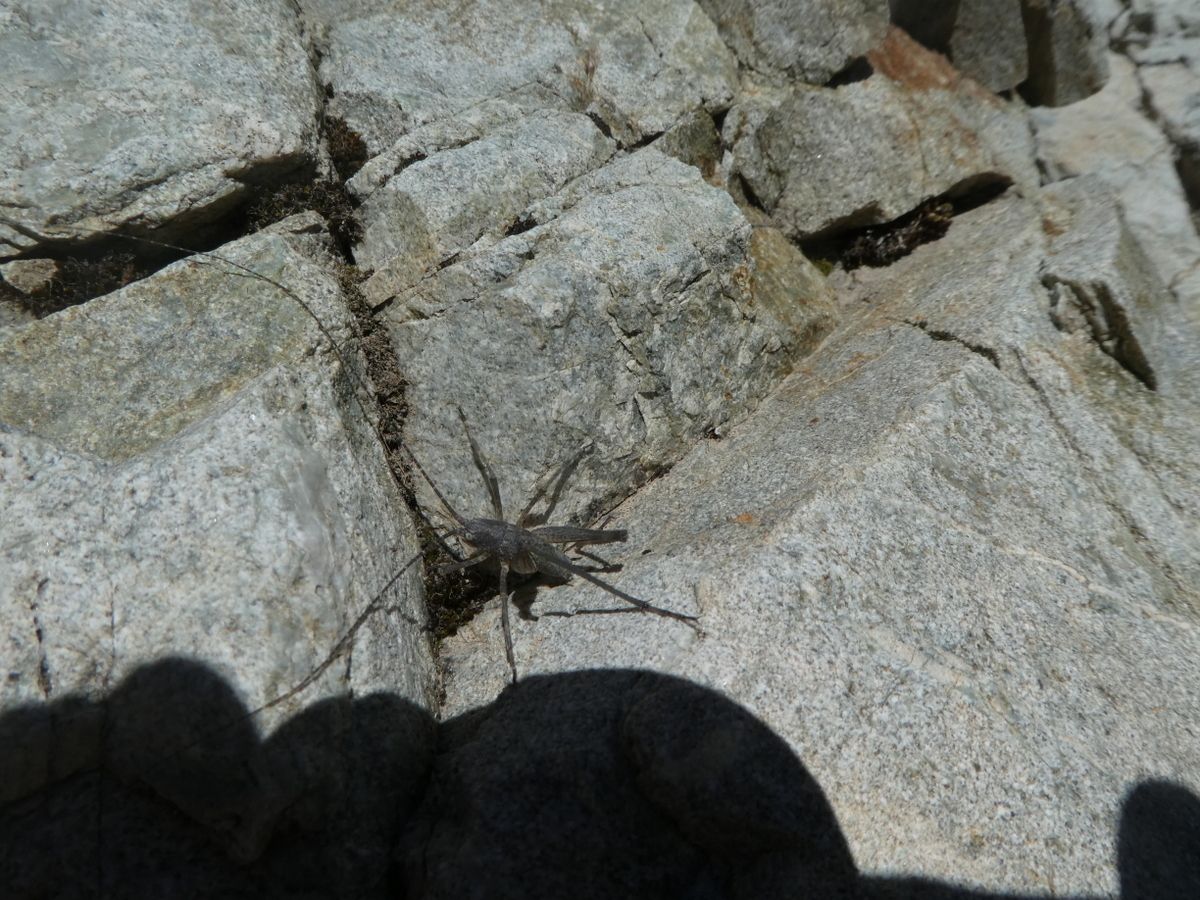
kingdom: Animalia
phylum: Arthropoda
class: Insecta
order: Orthoptera
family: Rhaphidophoridae
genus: Petrotettix
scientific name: Petrotettix cupolaensis
